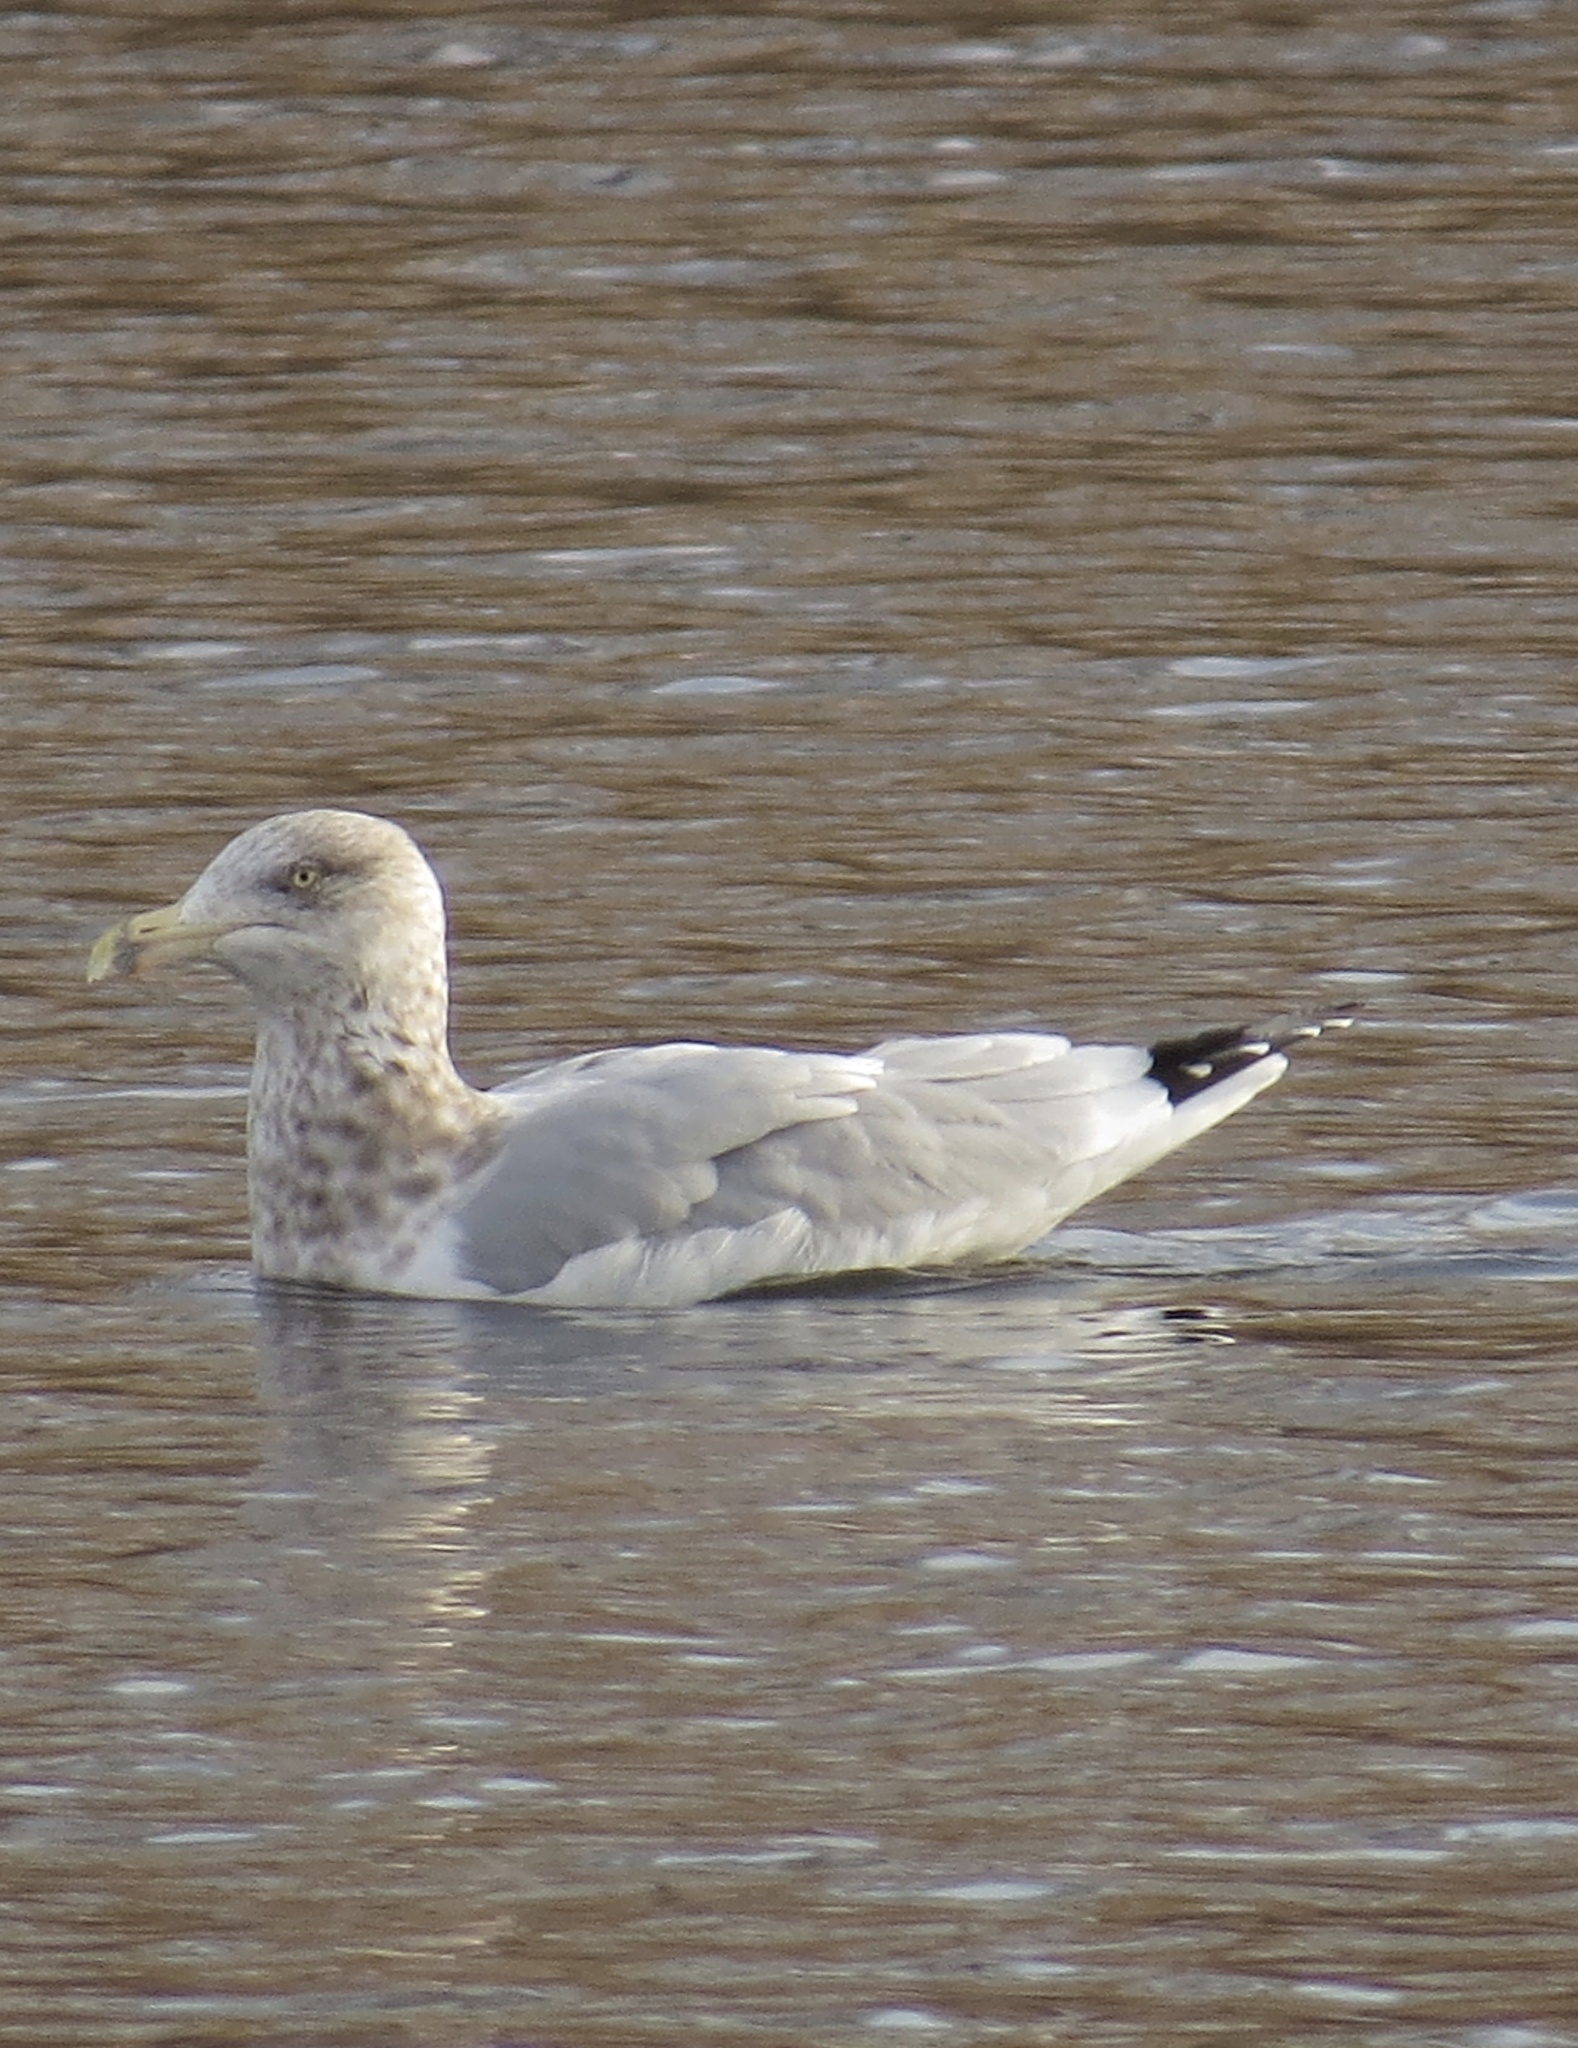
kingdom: Animalia
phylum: Chordata
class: Aves
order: Charadriiformes
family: Laridae
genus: Larus
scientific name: Larus argentatus
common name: Herring gull
